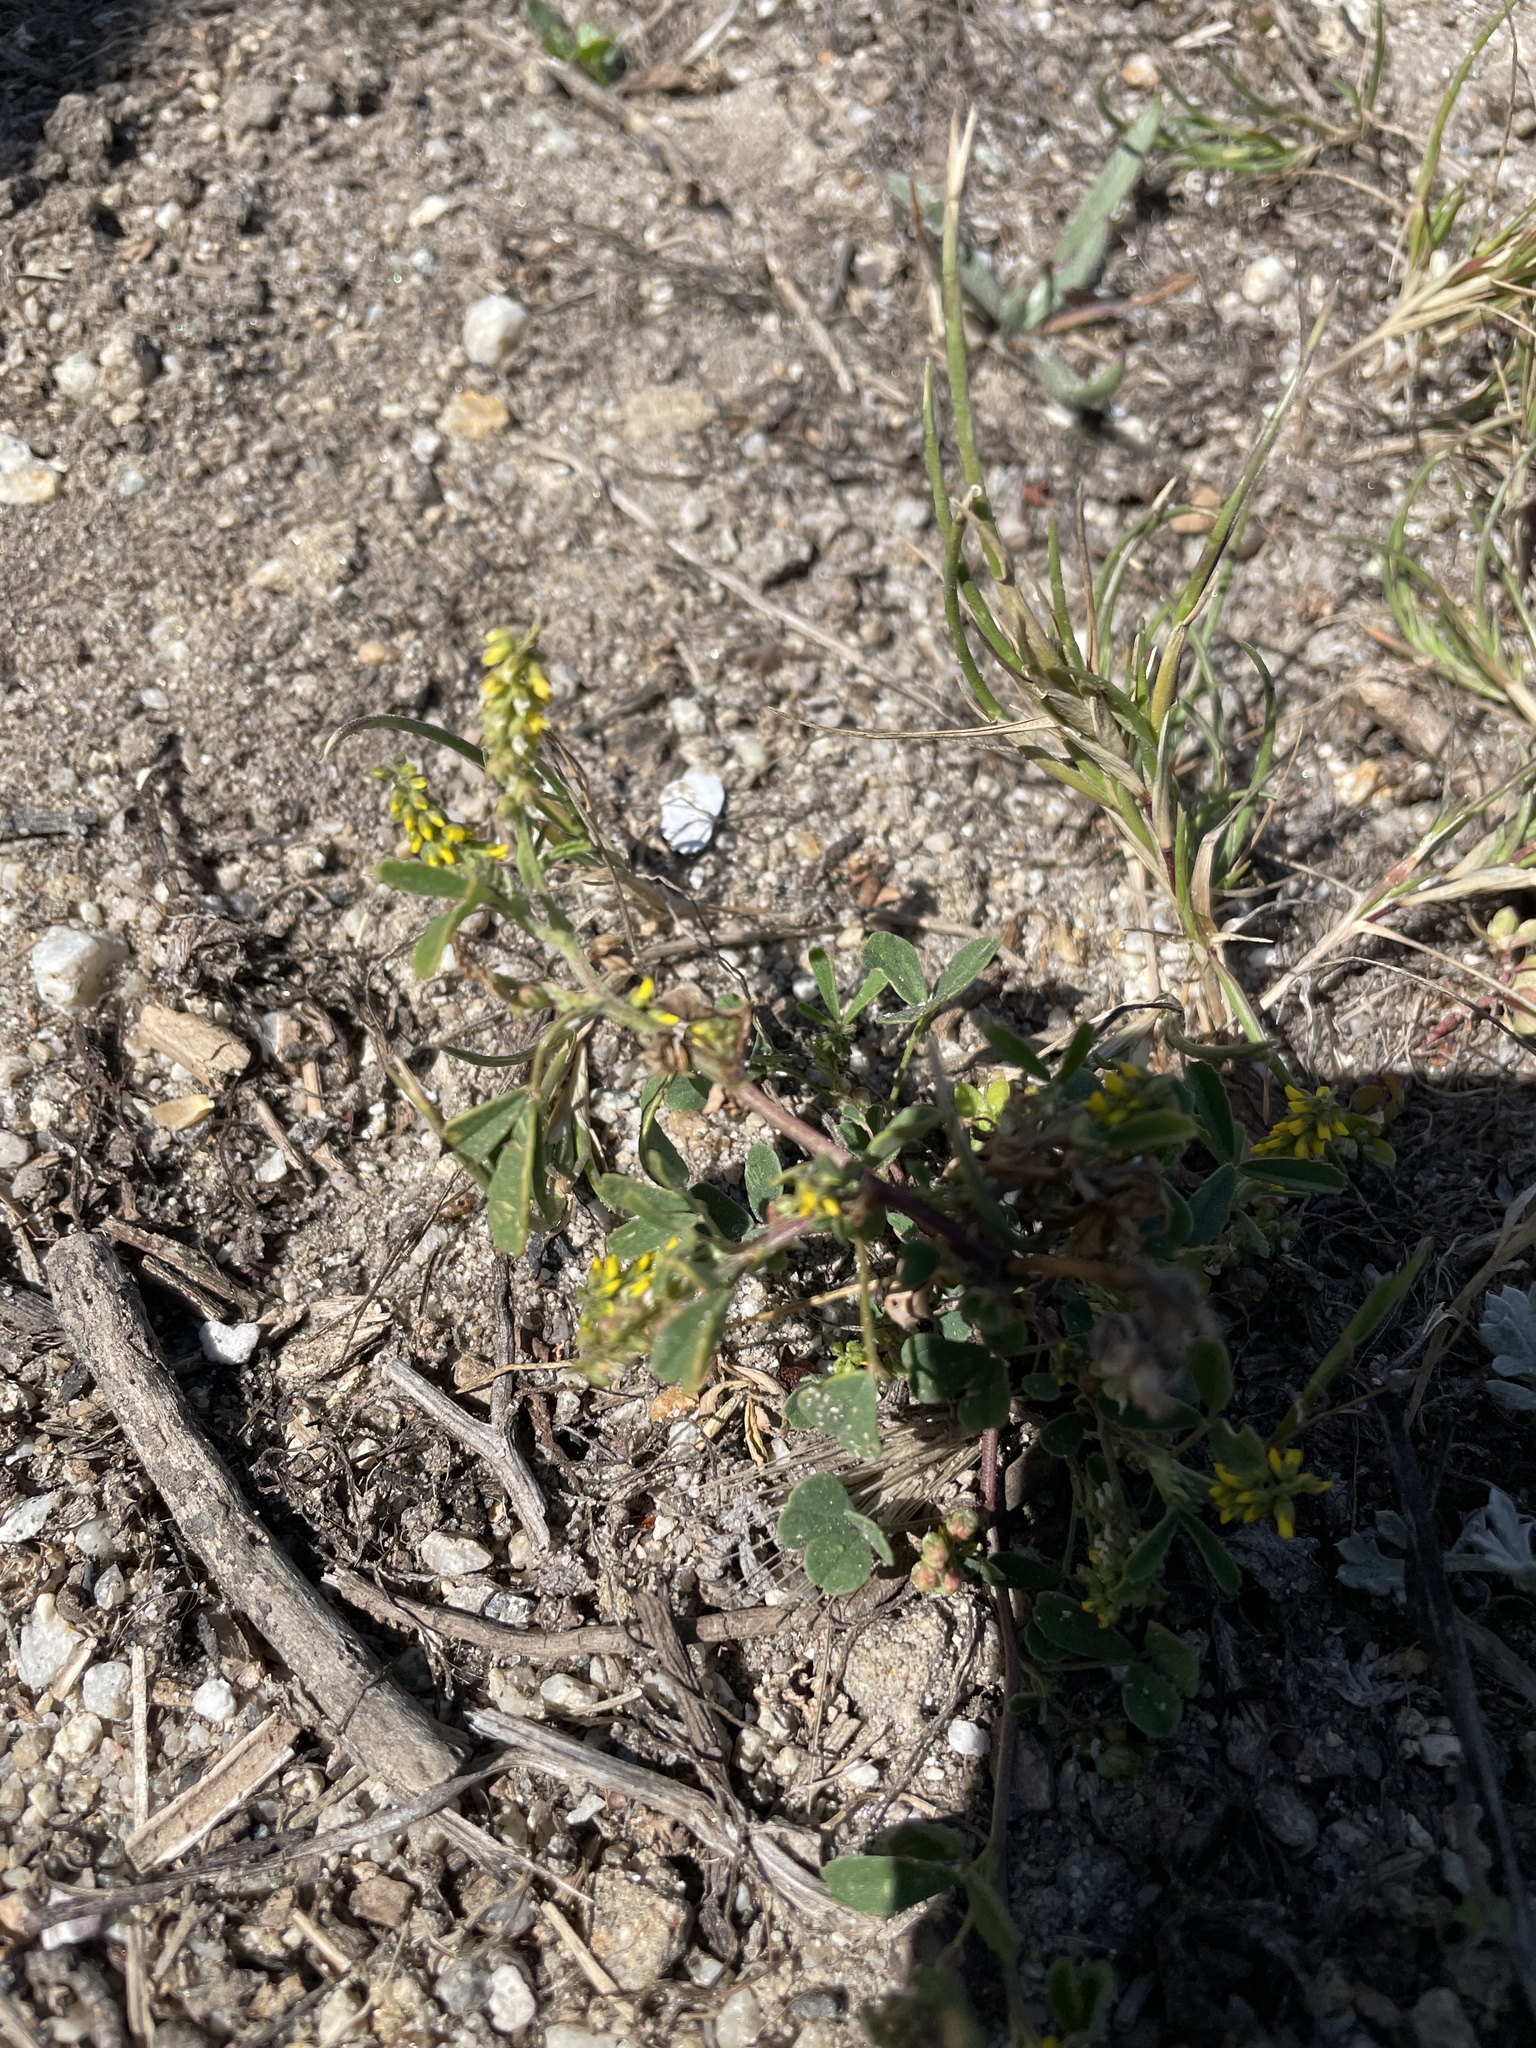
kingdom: Plantae
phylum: Tracheophyta
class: Magnoliopsida
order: Fabales
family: Fabaceae
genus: Melilotus
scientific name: Melilotus indicus
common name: Small melilot
